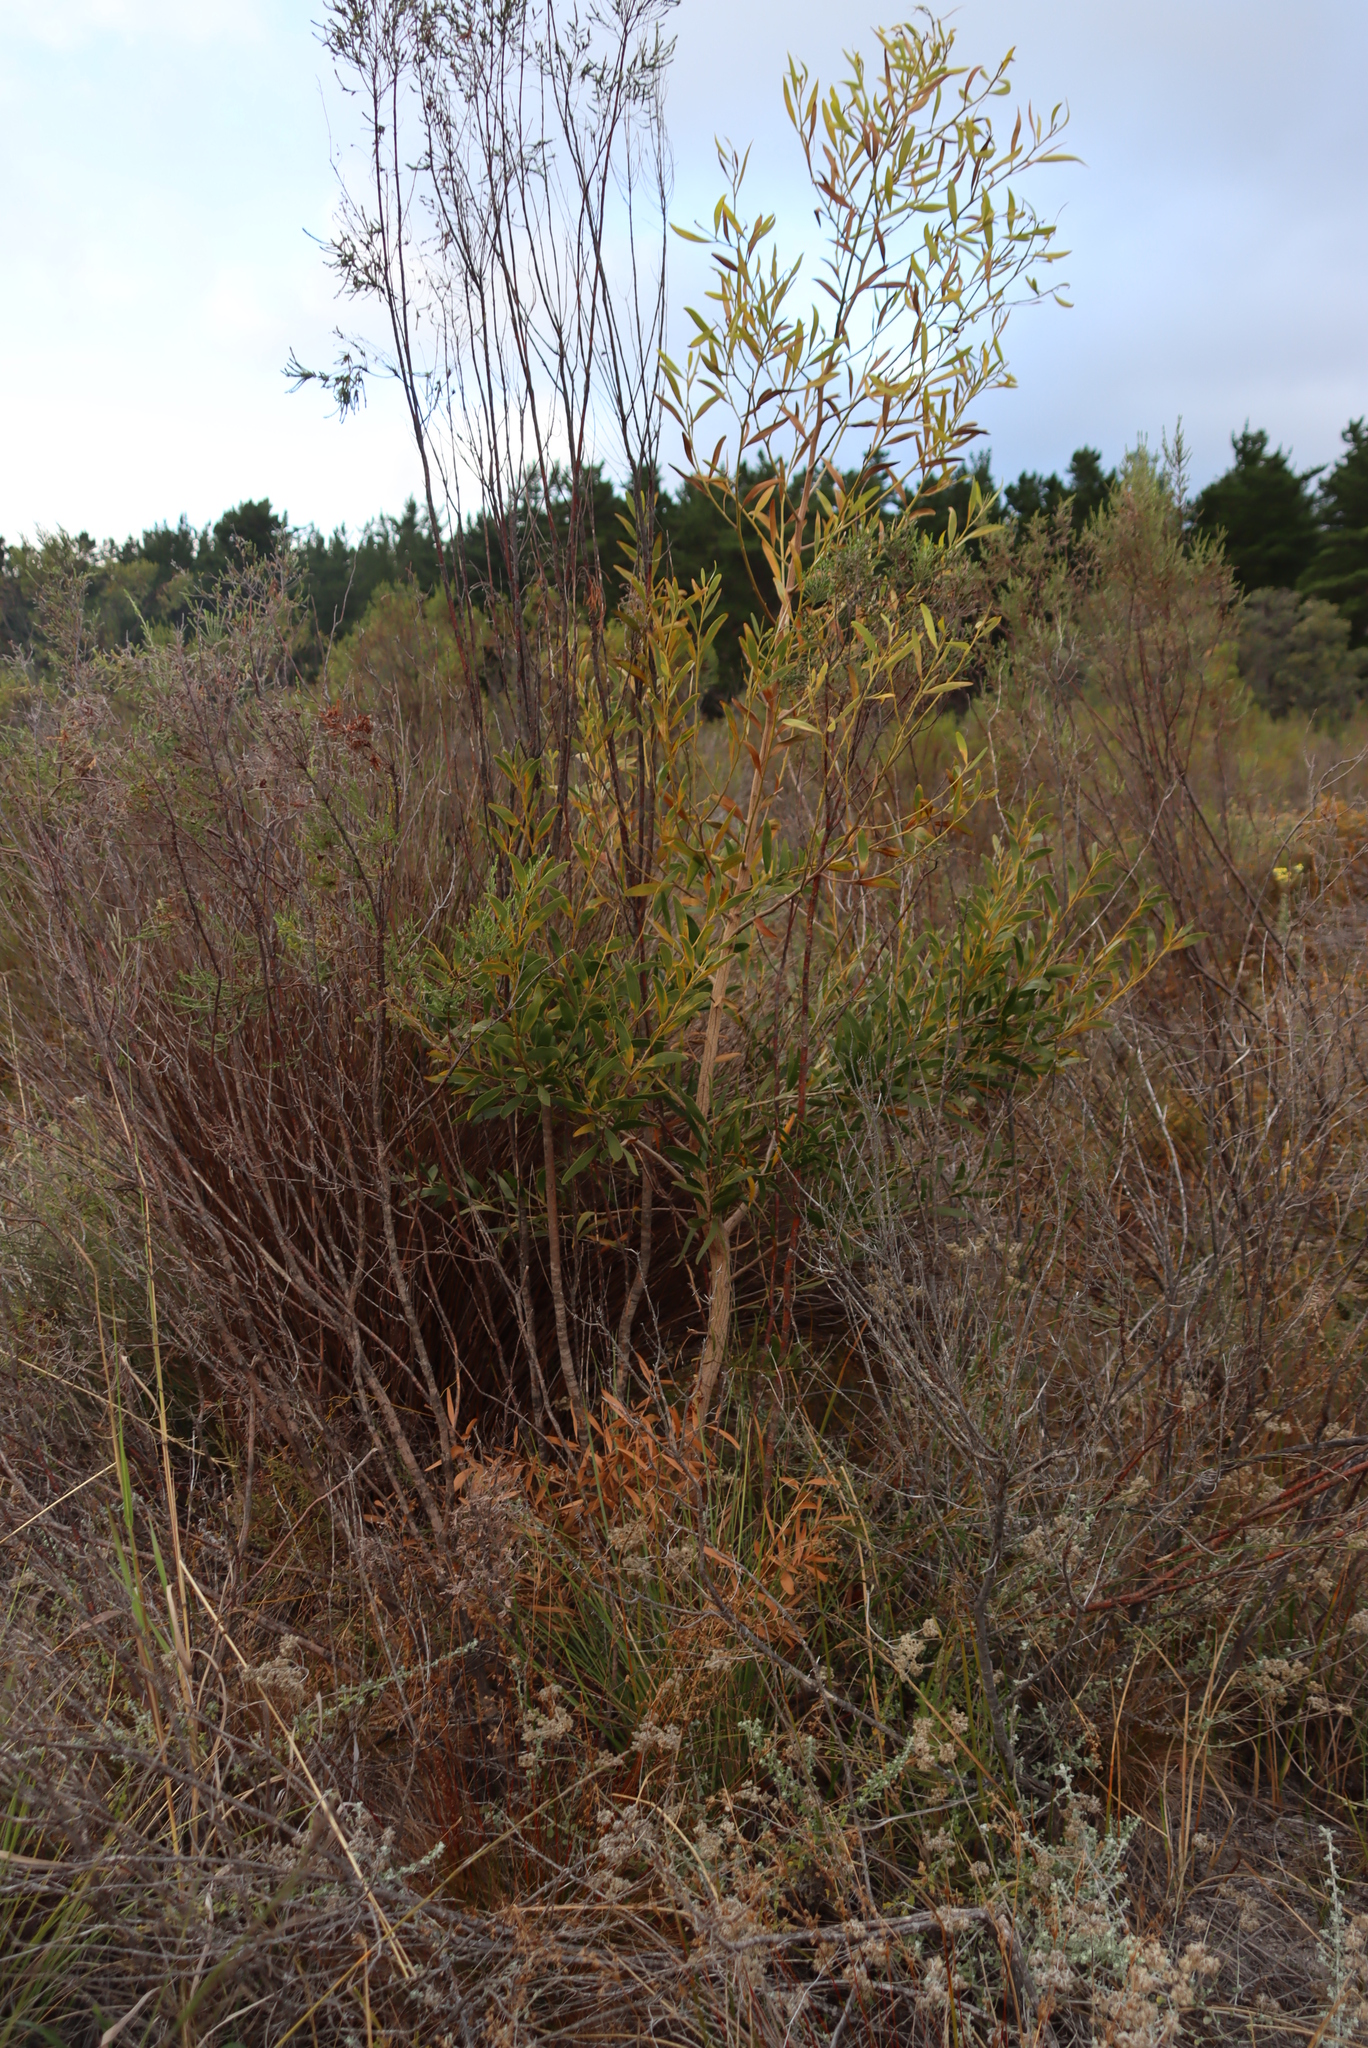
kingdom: Plantae
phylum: Tracheophyta
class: Magnoliopsida
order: Fabales
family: Fabaceae
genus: Acacia
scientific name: Acacia melanoxylon
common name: Blackwood
